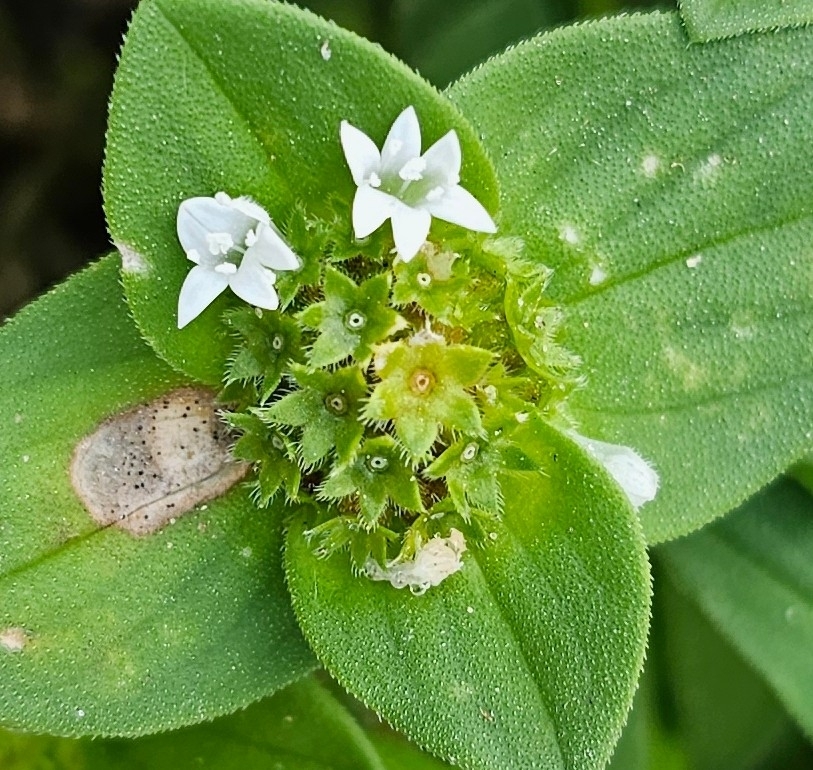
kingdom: Plantae
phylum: Tracheophyta
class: Magnoliopsida
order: Gentianales
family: Rubiaceae
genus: Richardia
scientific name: Richardia brasiliensis
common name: Tropical mexican clover
